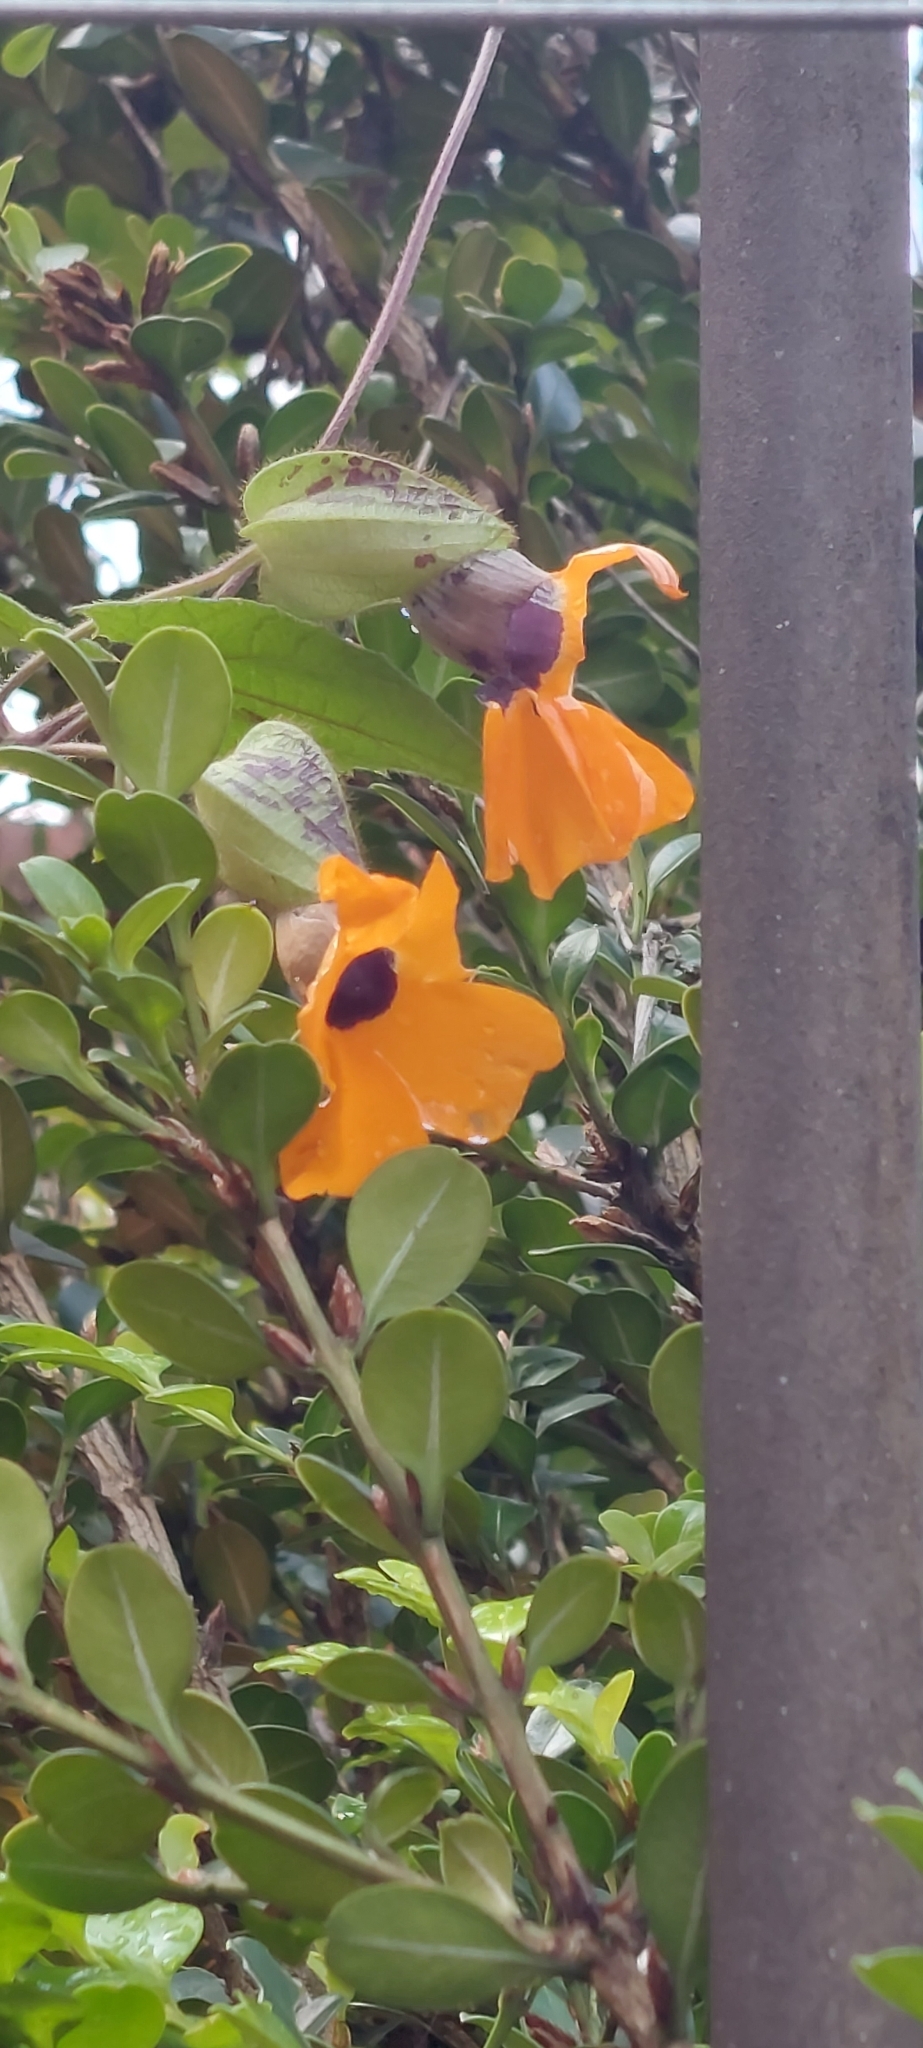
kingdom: Plantae
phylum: Tracheophyta
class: Magnoliopsida
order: Lamiales
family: Acanthaceae
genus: Thunbergia
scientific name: Thunbergia alata
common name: Blackeyed susan vine
